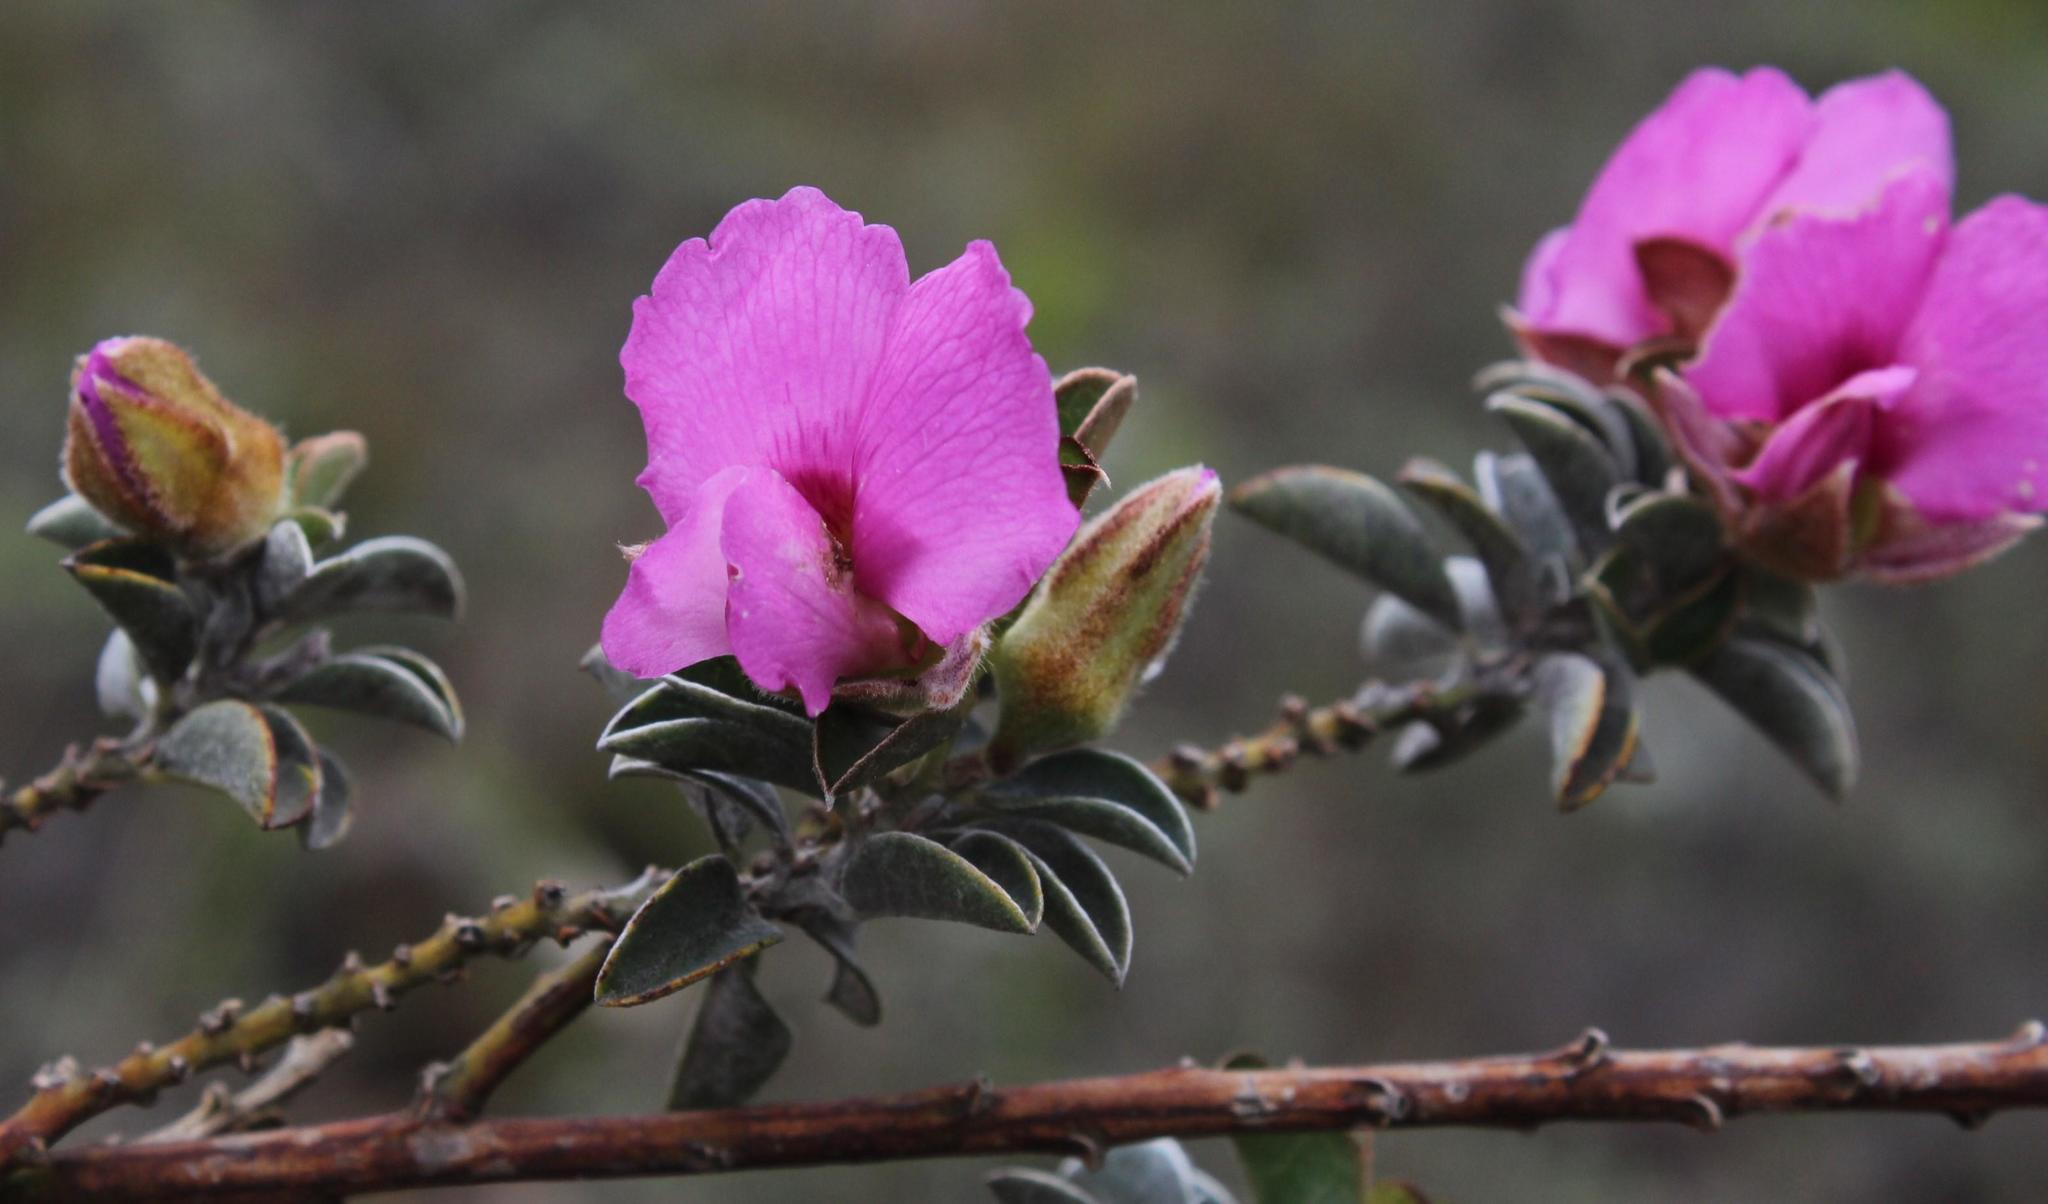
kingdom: Plantae
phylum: Tracheophyta
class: Magnoliopsida
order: Fabales
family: Fabaceae
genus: Podalyria
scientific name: Podalyria variabilis
